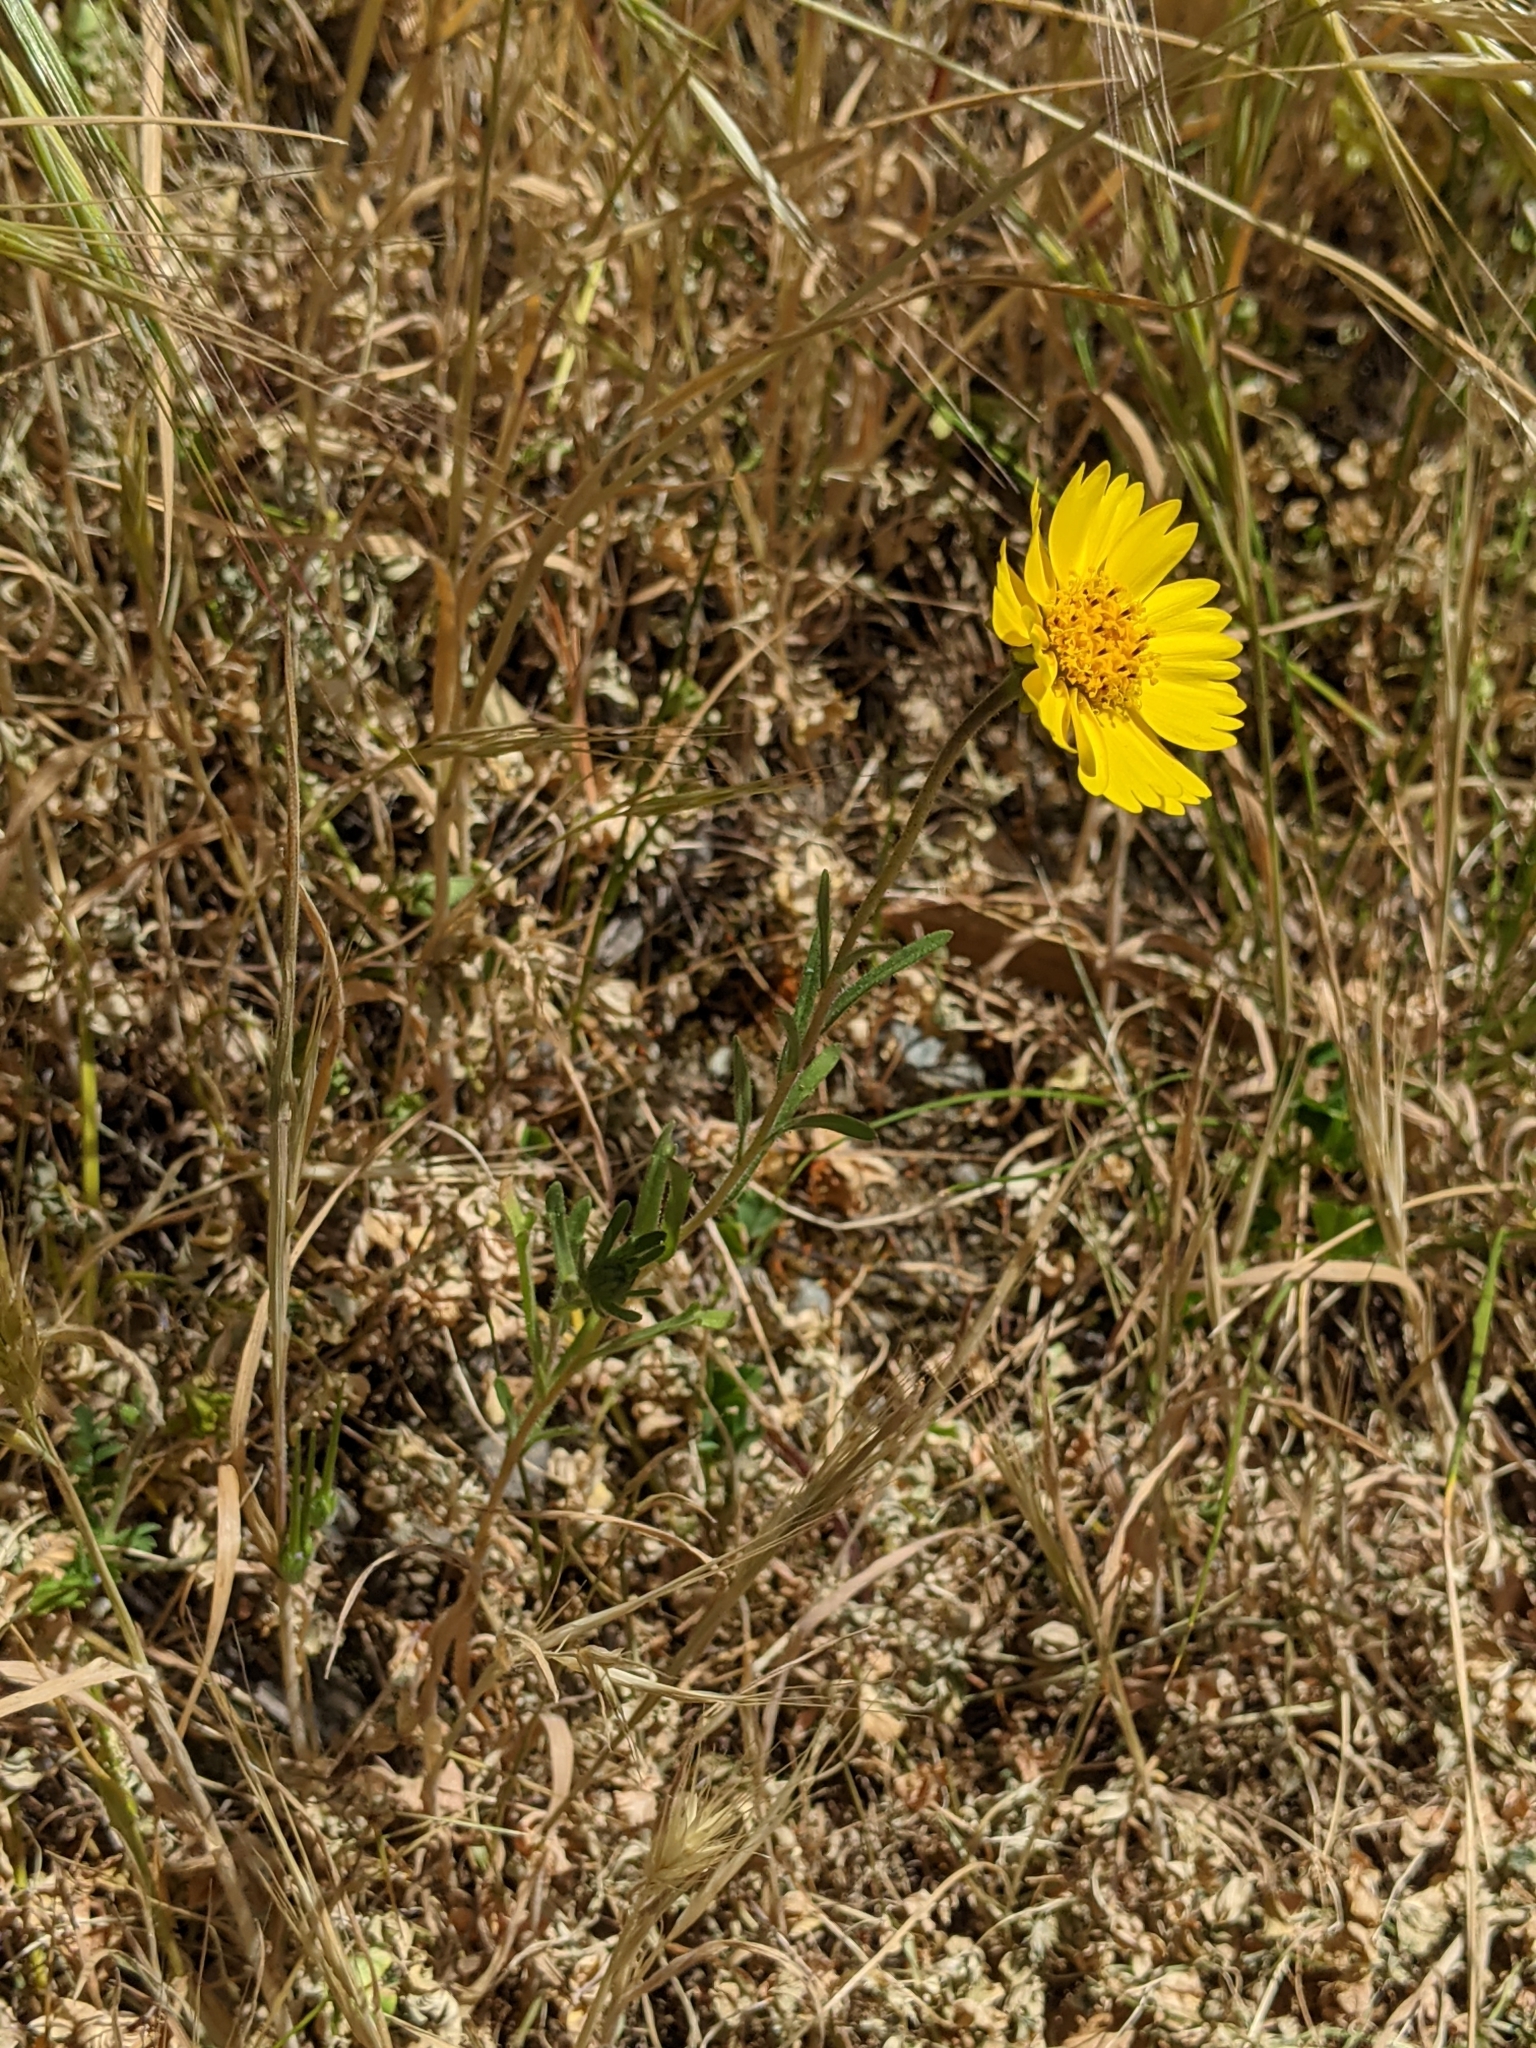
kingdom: Plantae
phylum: Tracheophyta
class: Magnoliopsida
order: Asterales
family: Asteraceae
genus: Layia
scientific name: Layia platyglossa
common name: Tidy-tips
